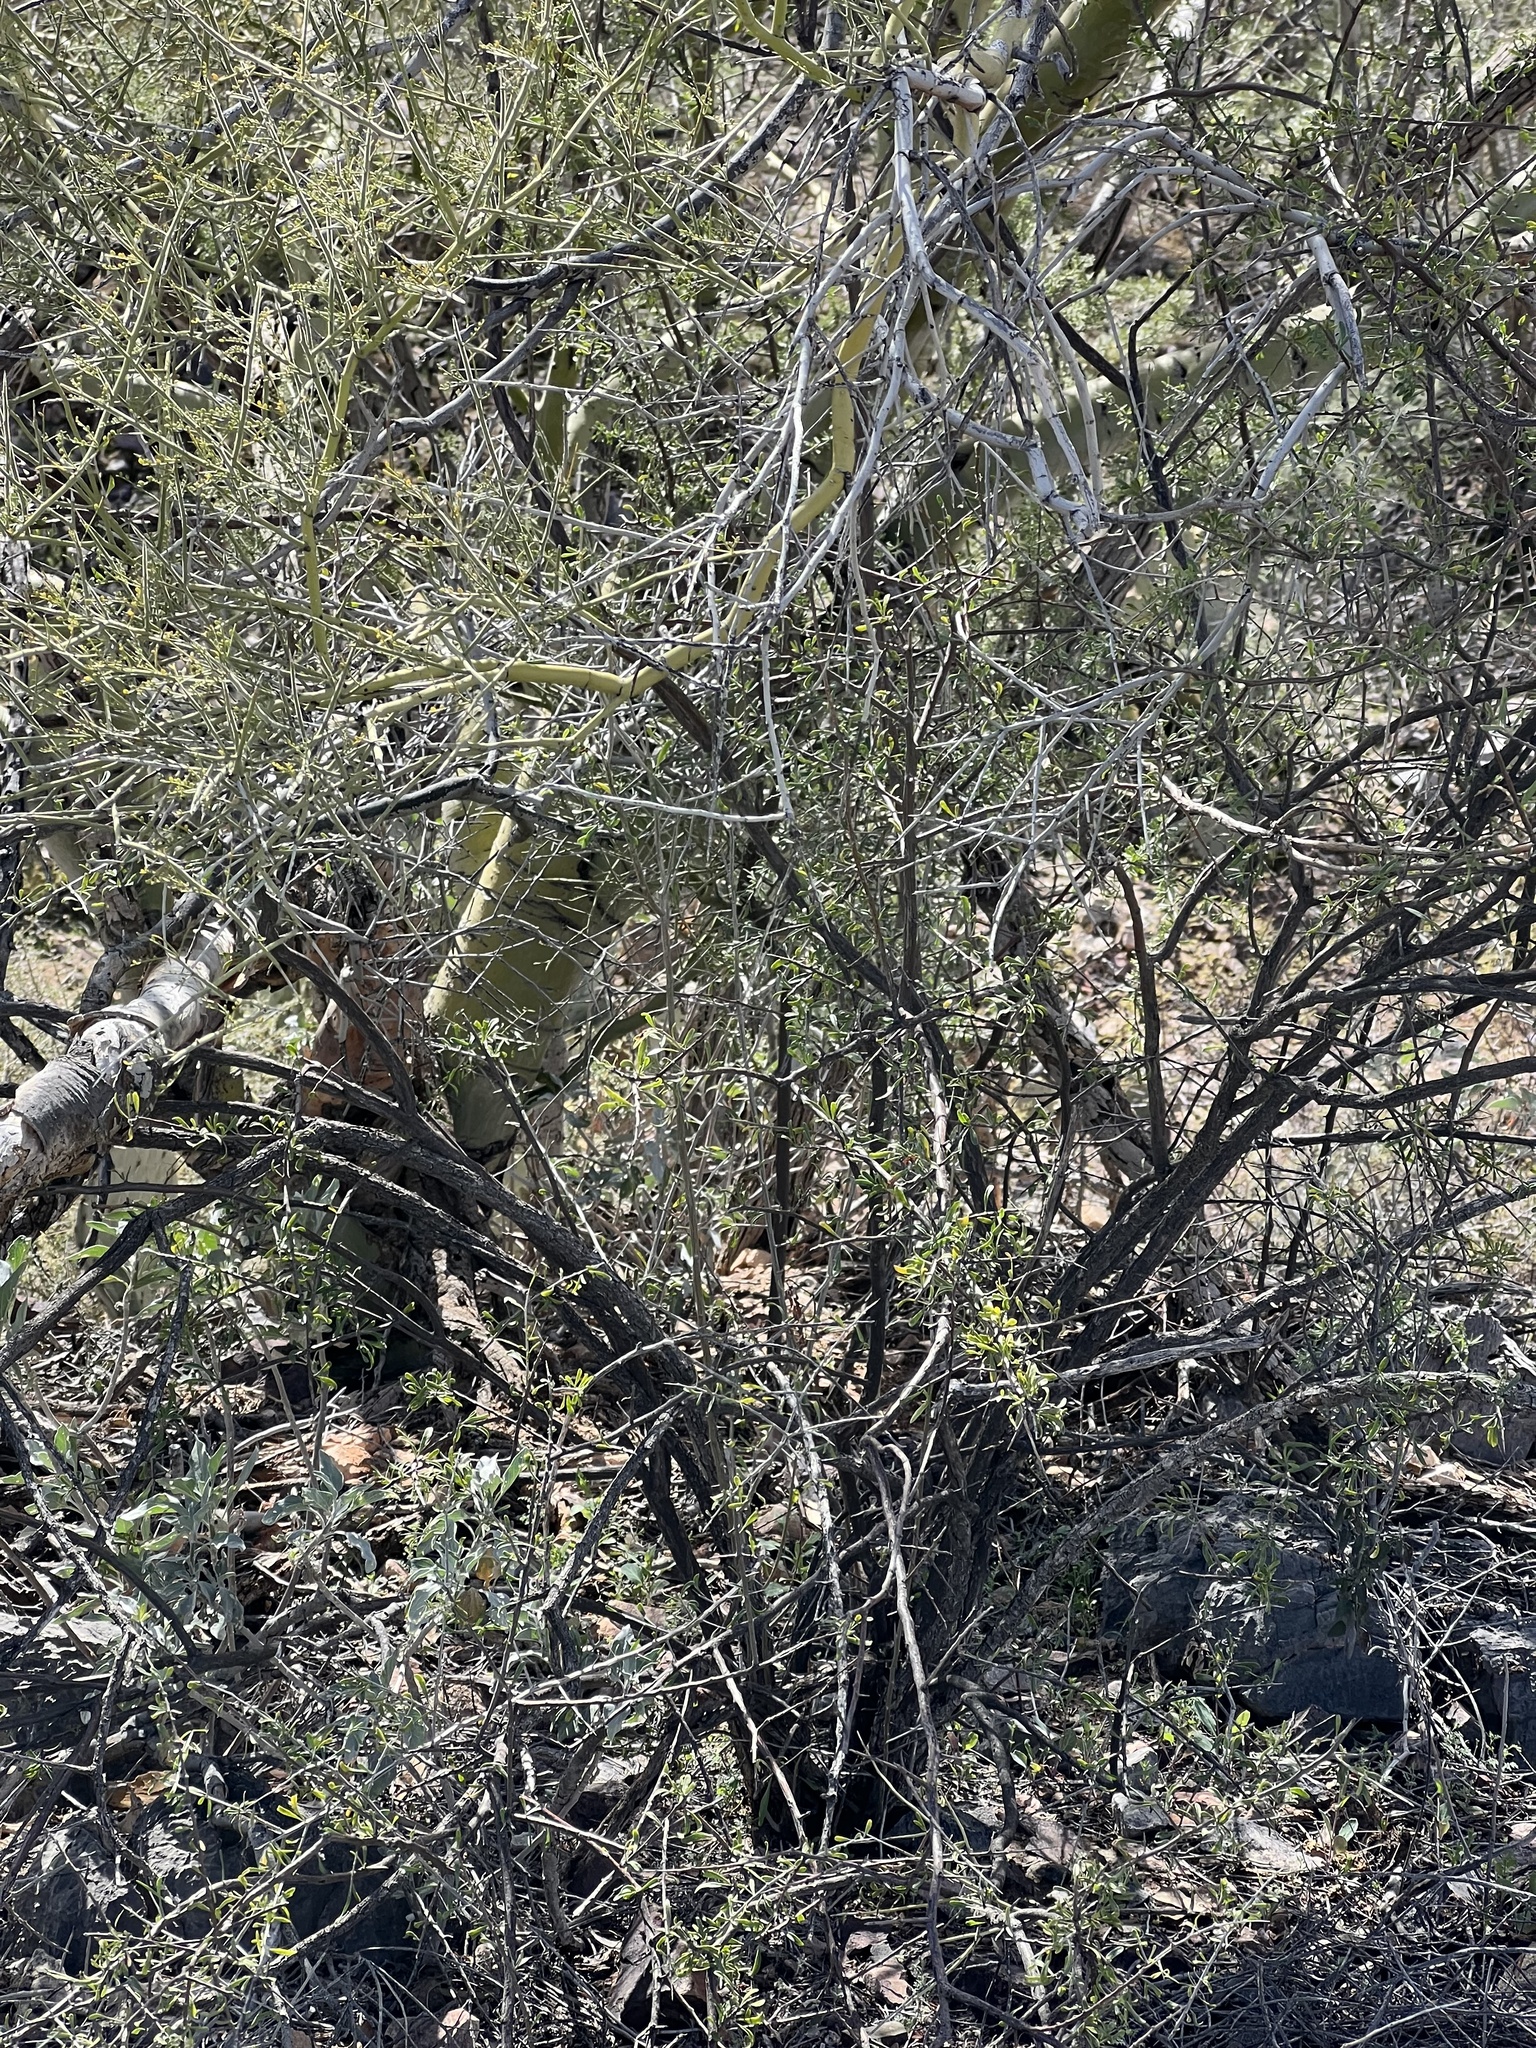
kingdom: Plantae
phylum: Tracheophyta
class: Magnoliopsida
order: Fabales
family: Fabaceae
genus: Parkinsonia
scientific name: Parkinsonia microphylla
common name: Yellow paloverde
